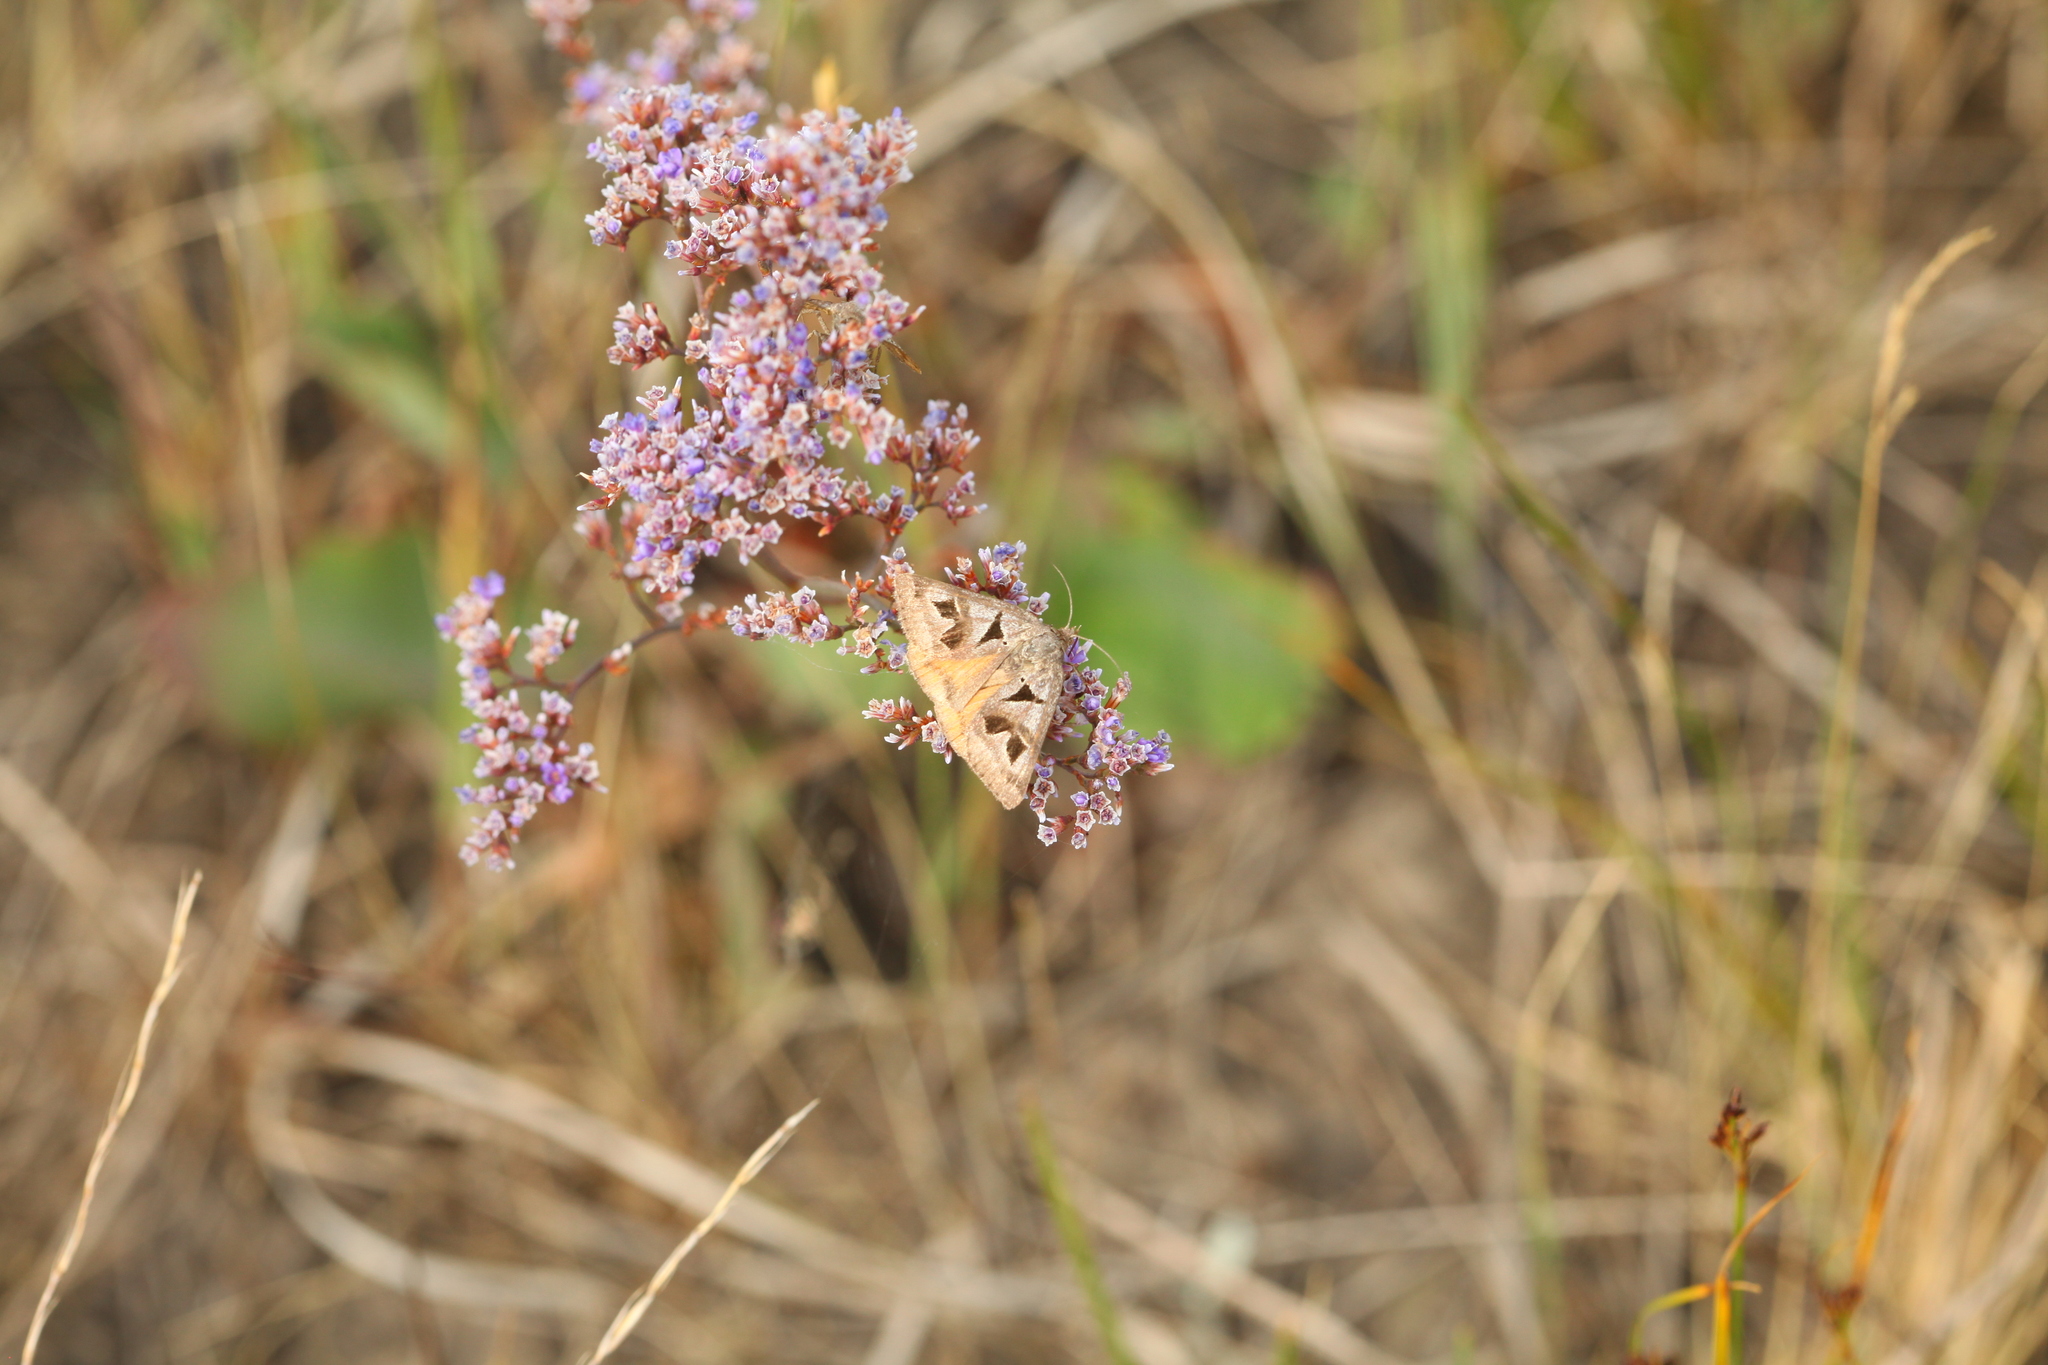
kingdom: Animalia
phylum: Arthropoda
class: Insecta
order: Lepidoptera
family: Erebidae
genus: Euclidia
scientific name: Euclidia triquetra
